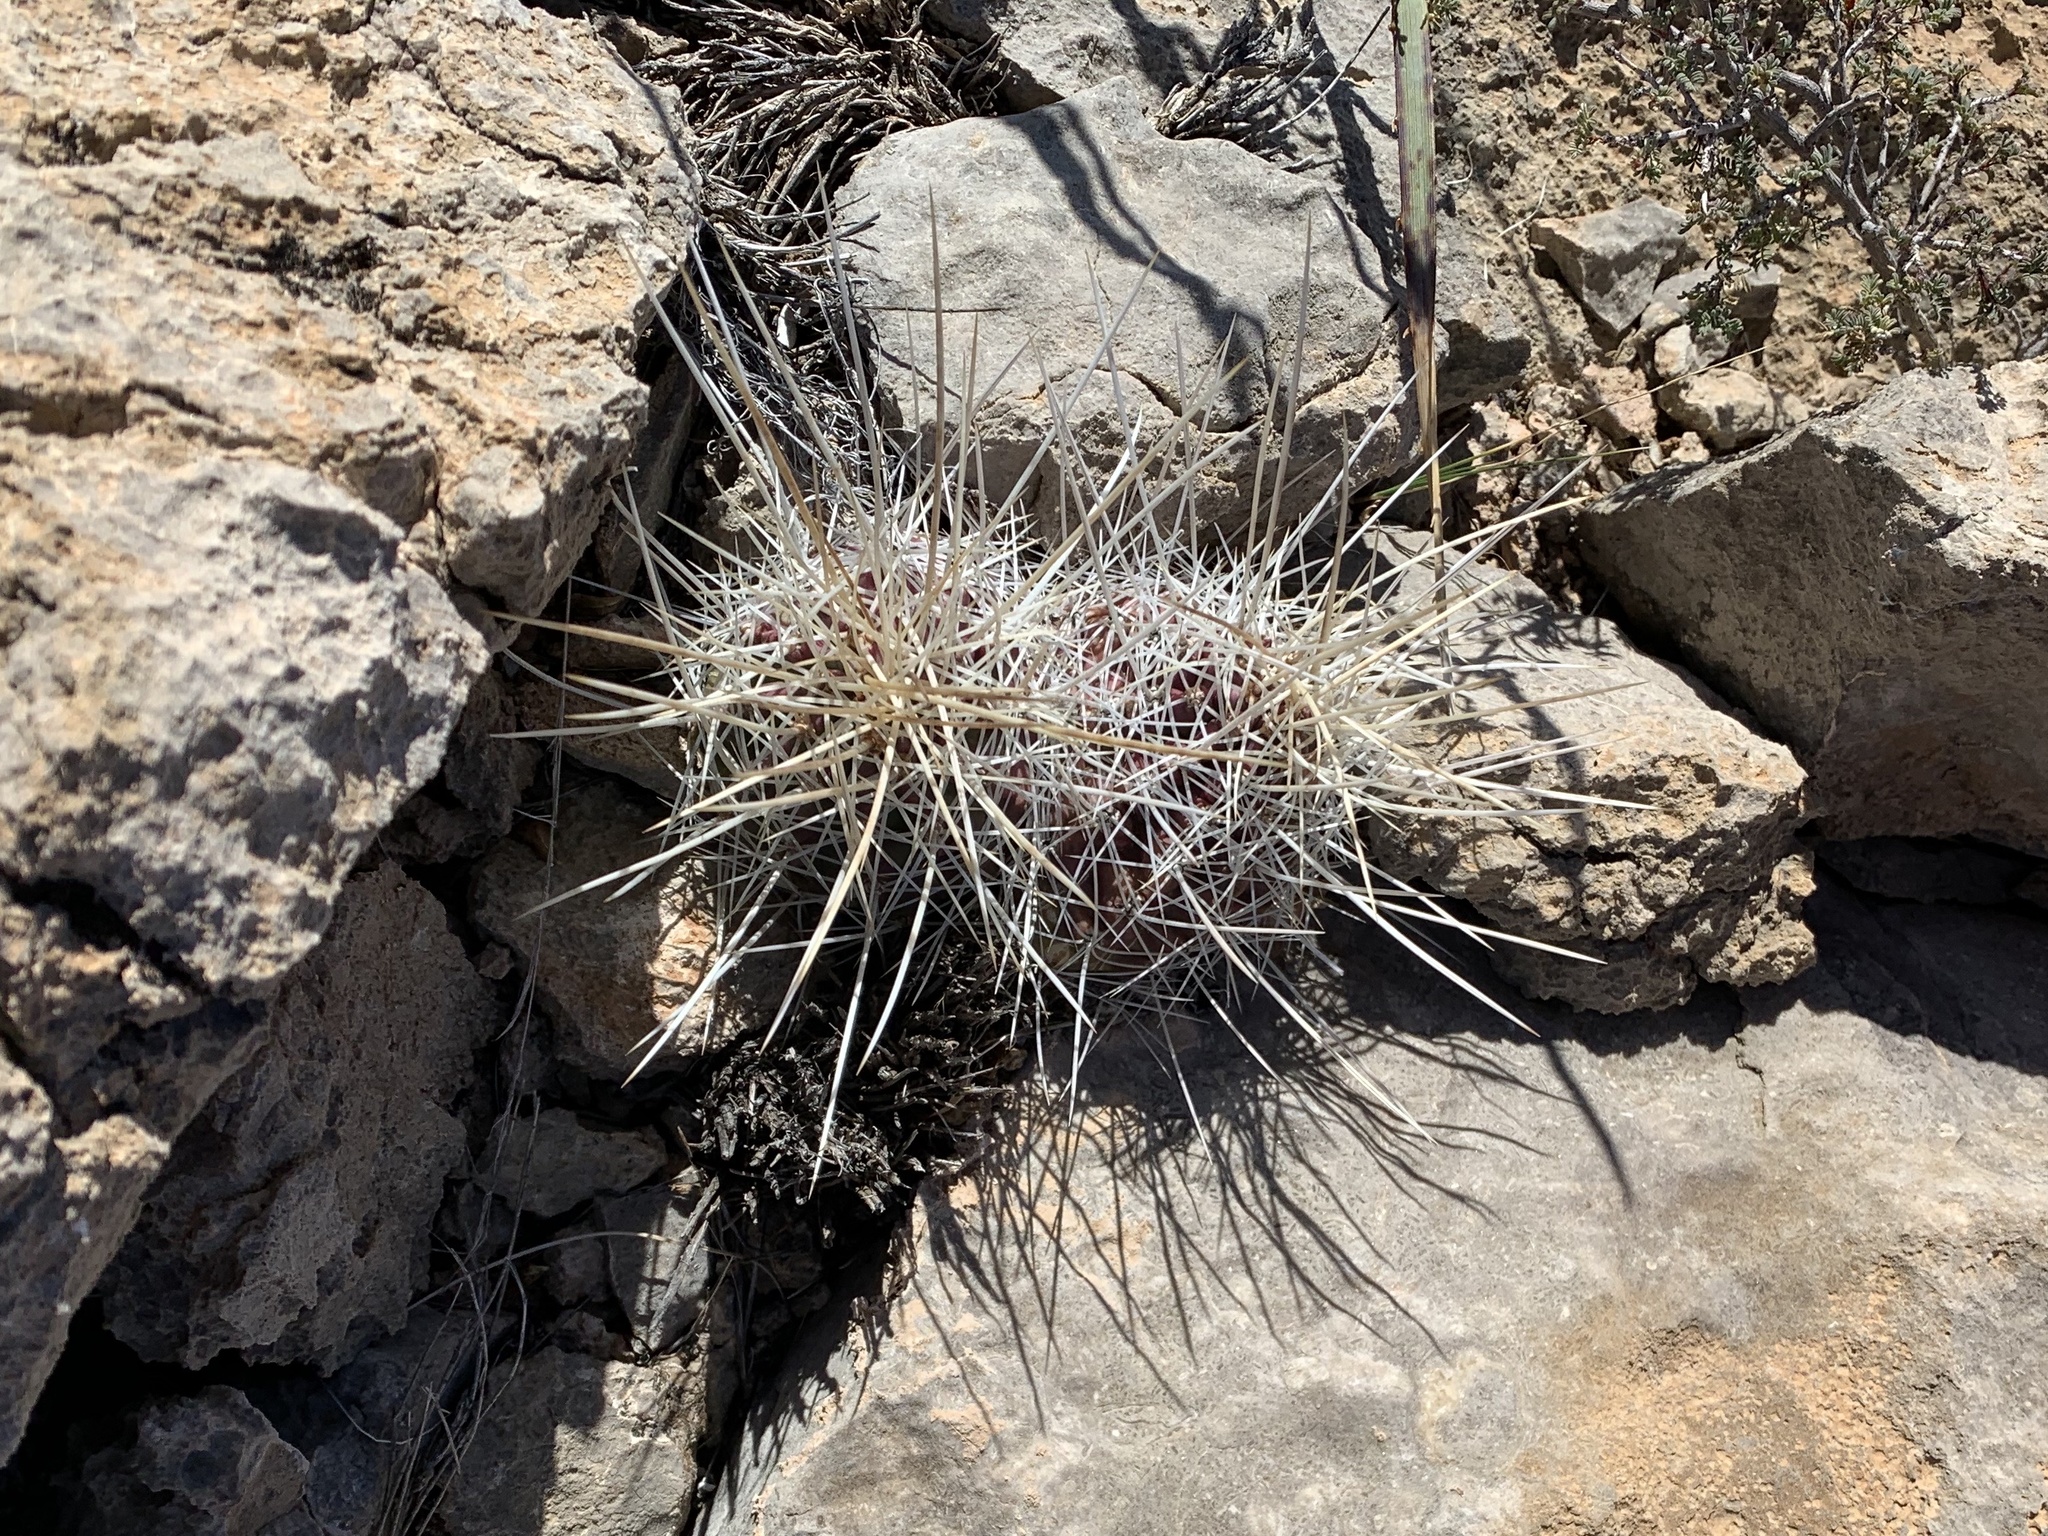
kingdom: Plantae
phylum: Tracheophyta
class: Magnoliopsida
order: Caryophyllales
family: Cactaceae
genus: Echinocereus
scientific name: Echinocereus stramineus
